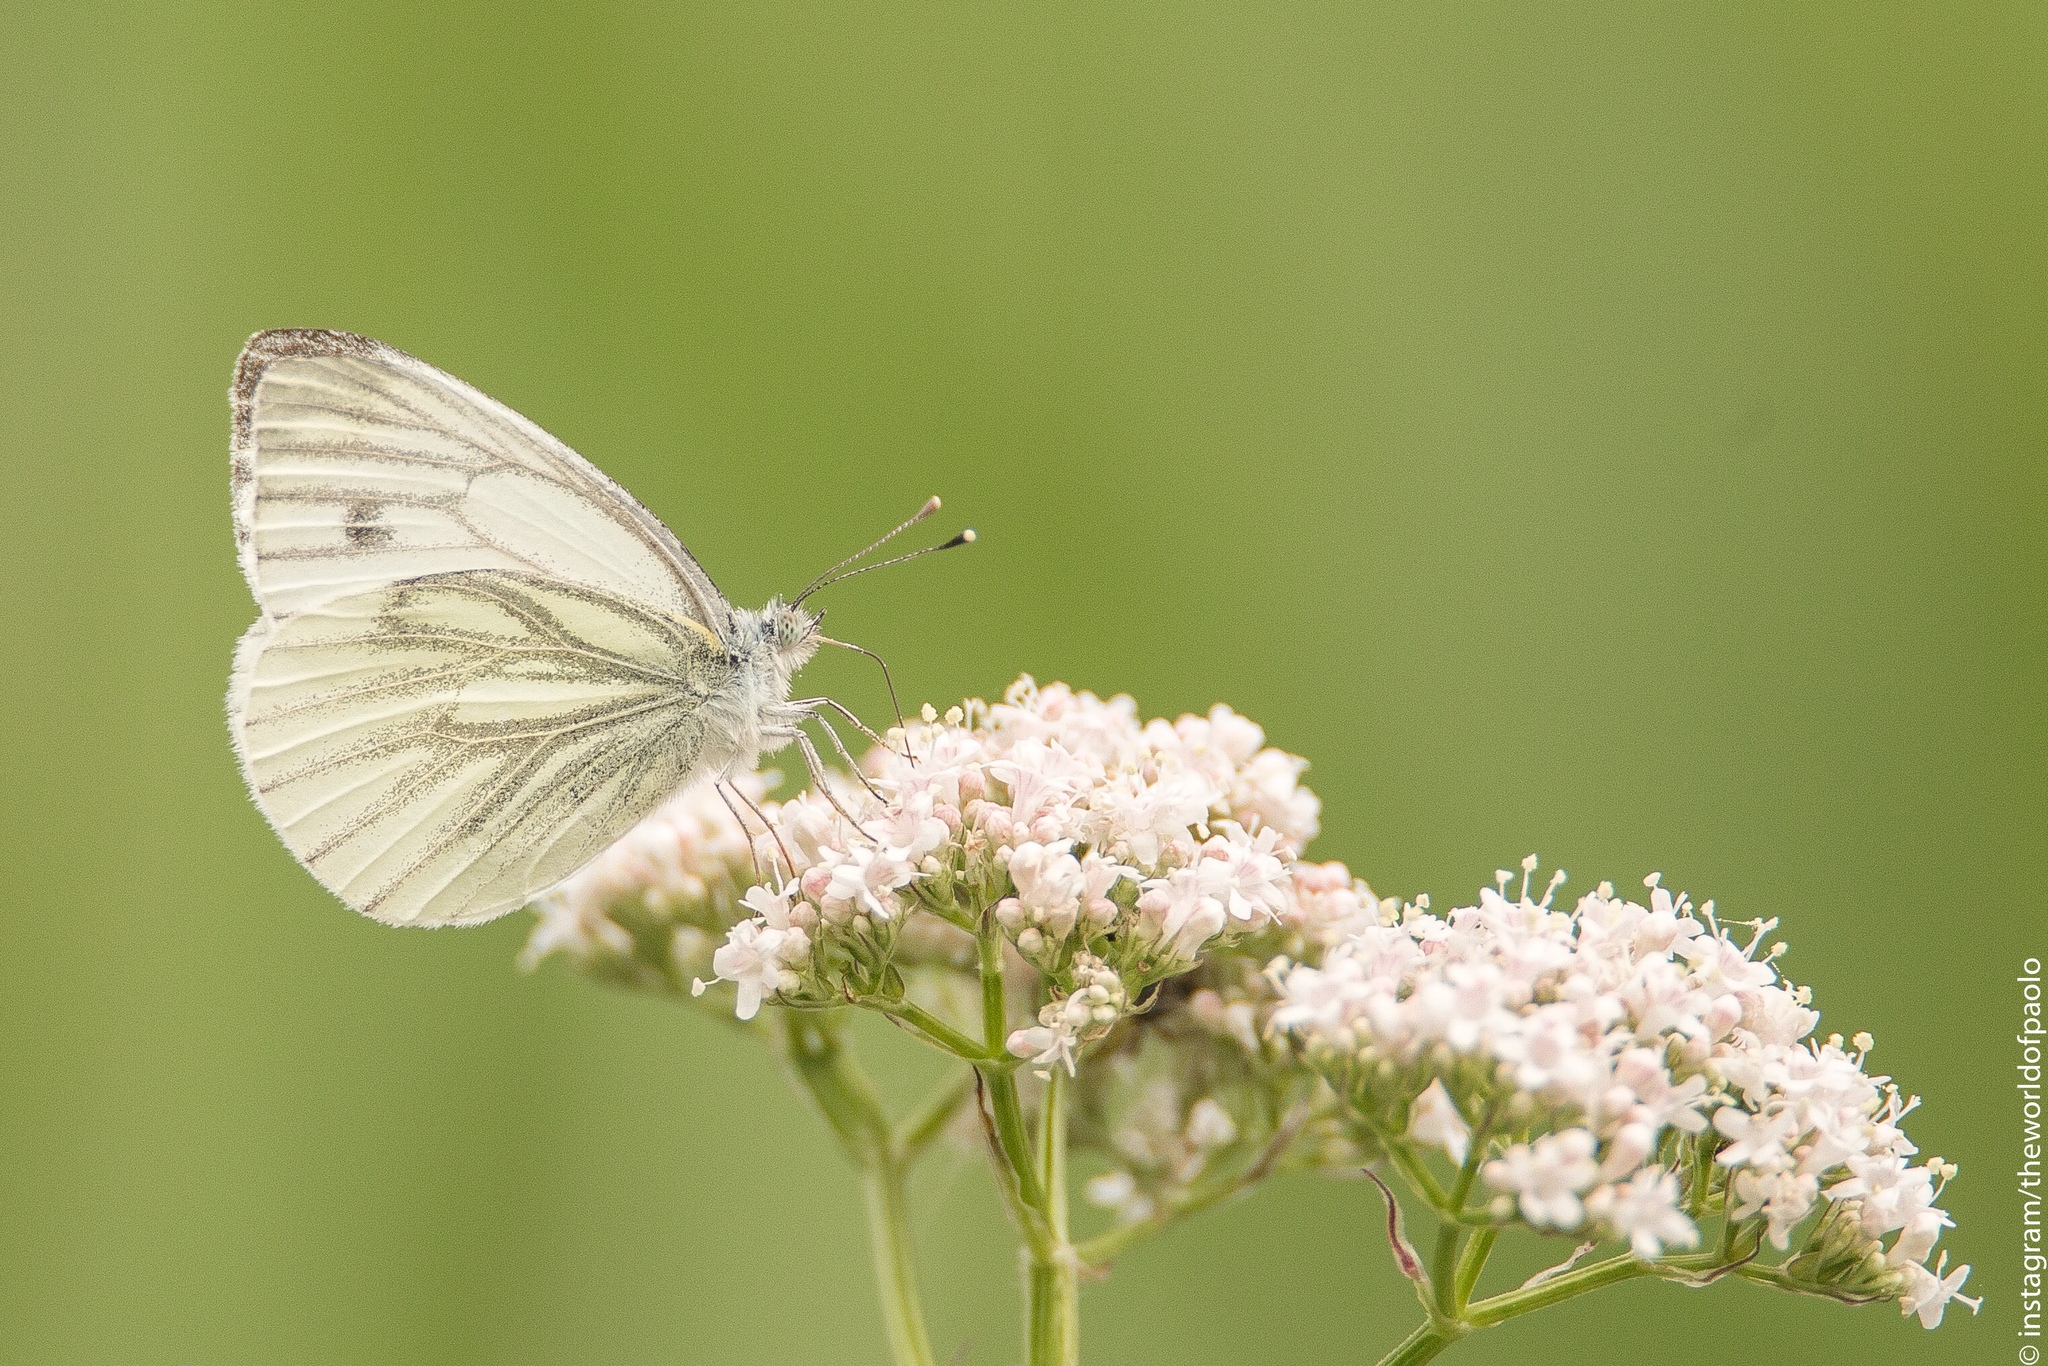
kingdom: Animalia
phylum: Arthropoda
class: Insecta
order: Lepidoptera
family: Pieridae
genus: Pieris
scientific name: Pieris napi
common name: Green-veined white
